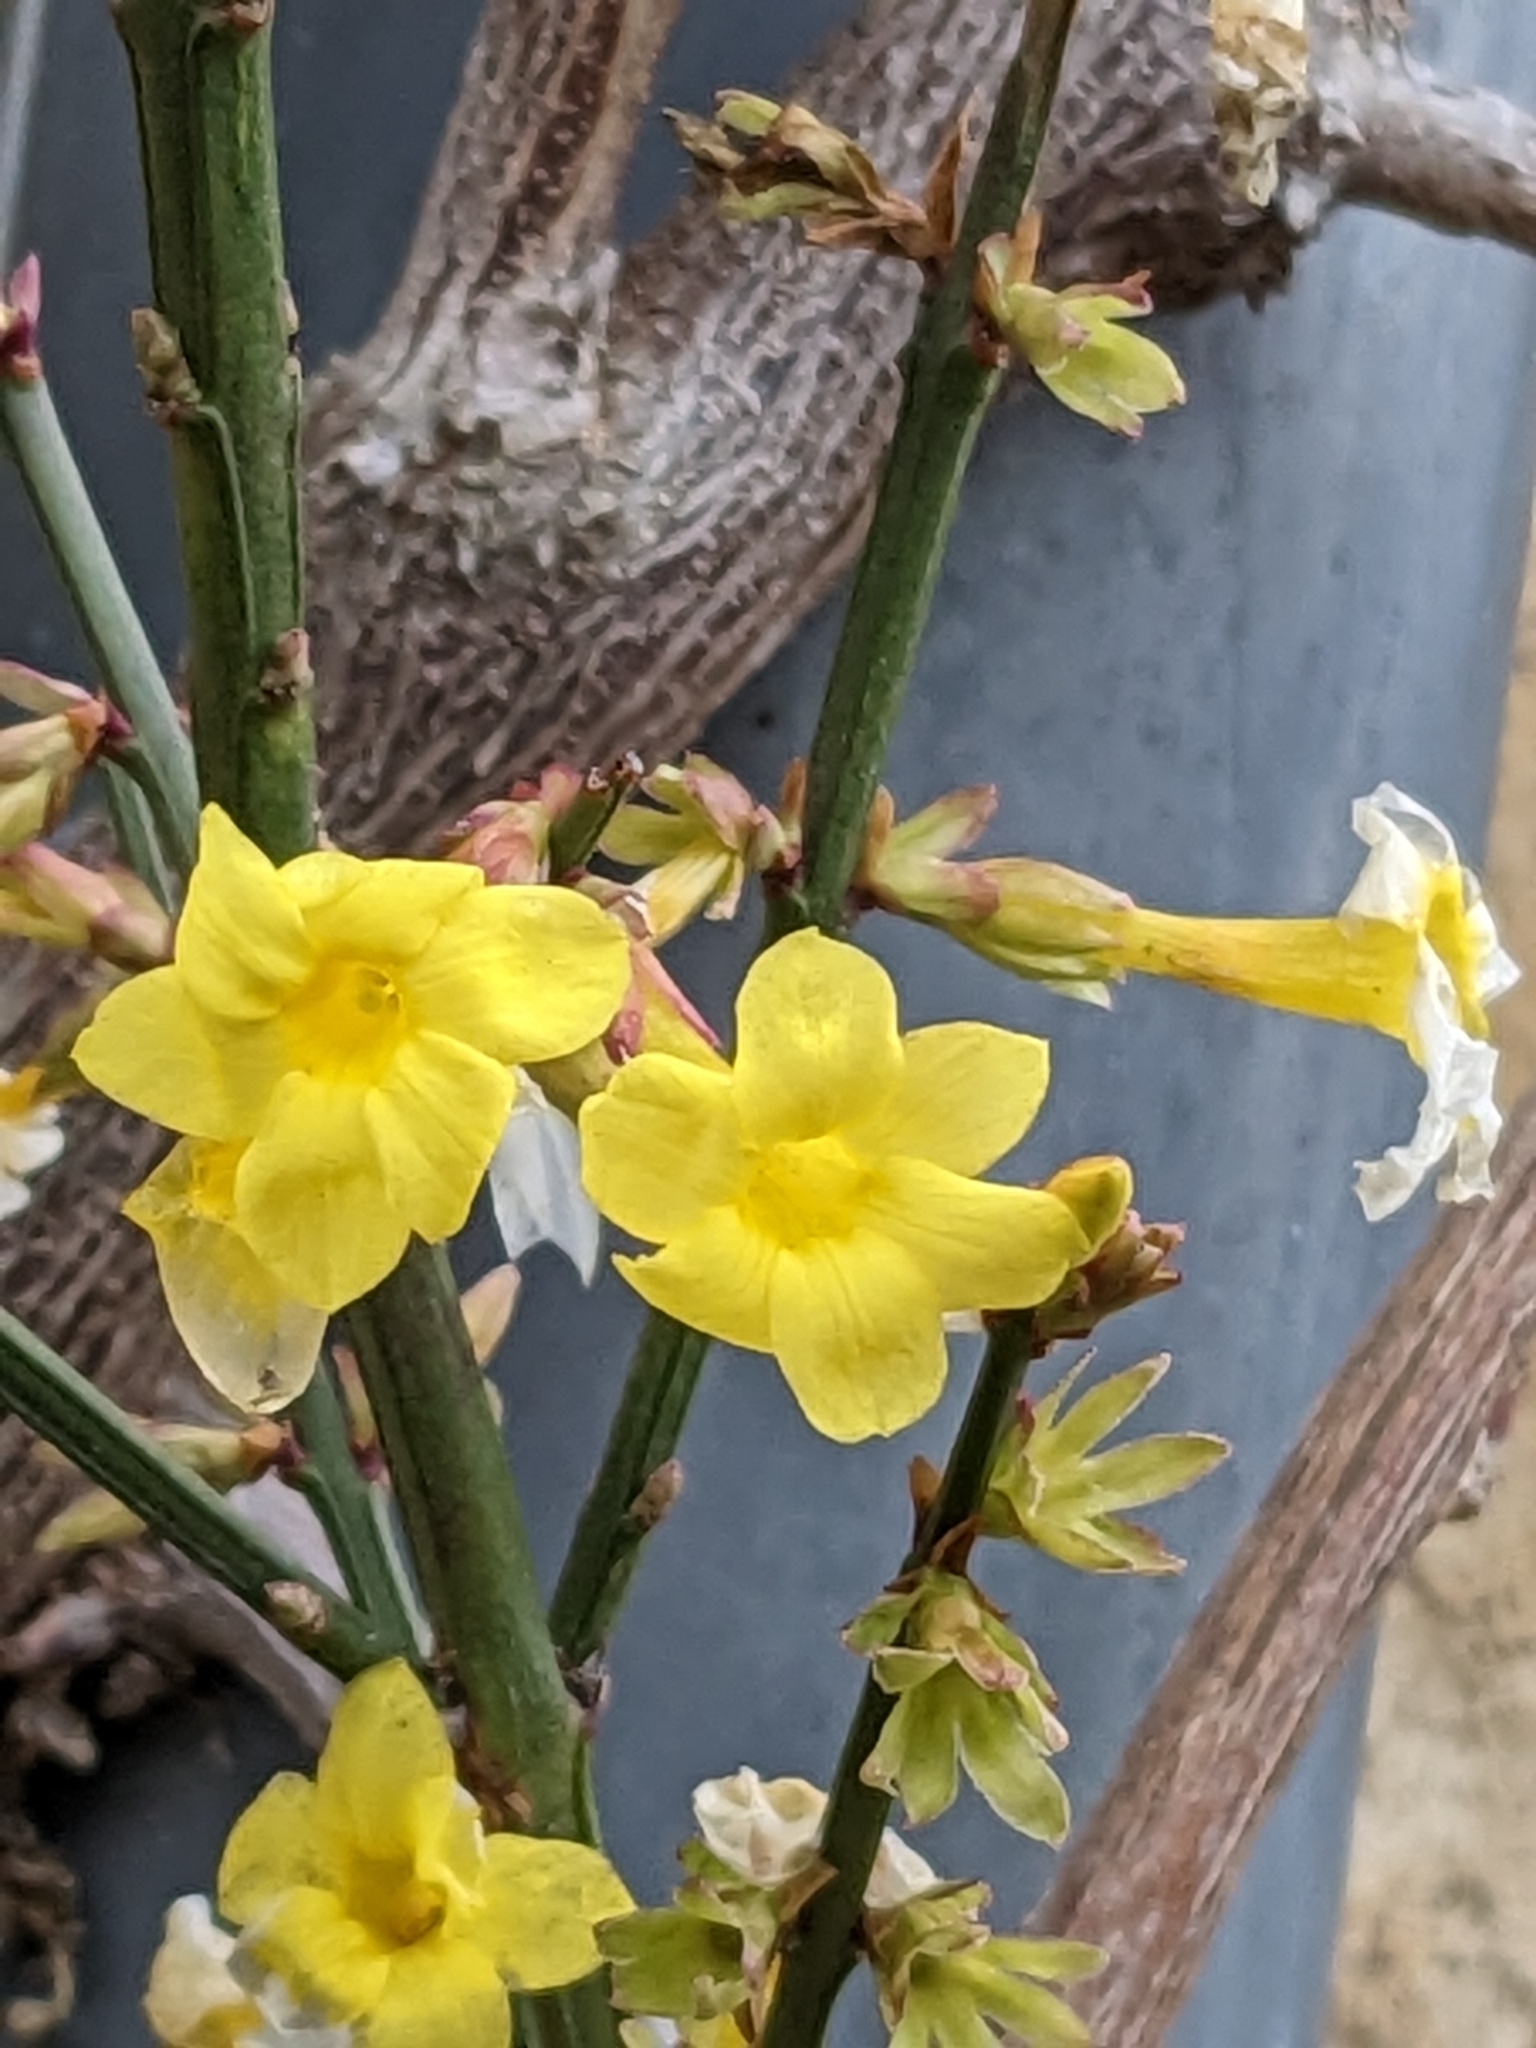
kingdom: Plantae
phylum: Tracheophyta
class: Magnoliopsida
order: Lamiales
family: Oleaceae
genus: Jasminum
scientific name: Jasminum nudiflorum
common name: Winter jasmine
